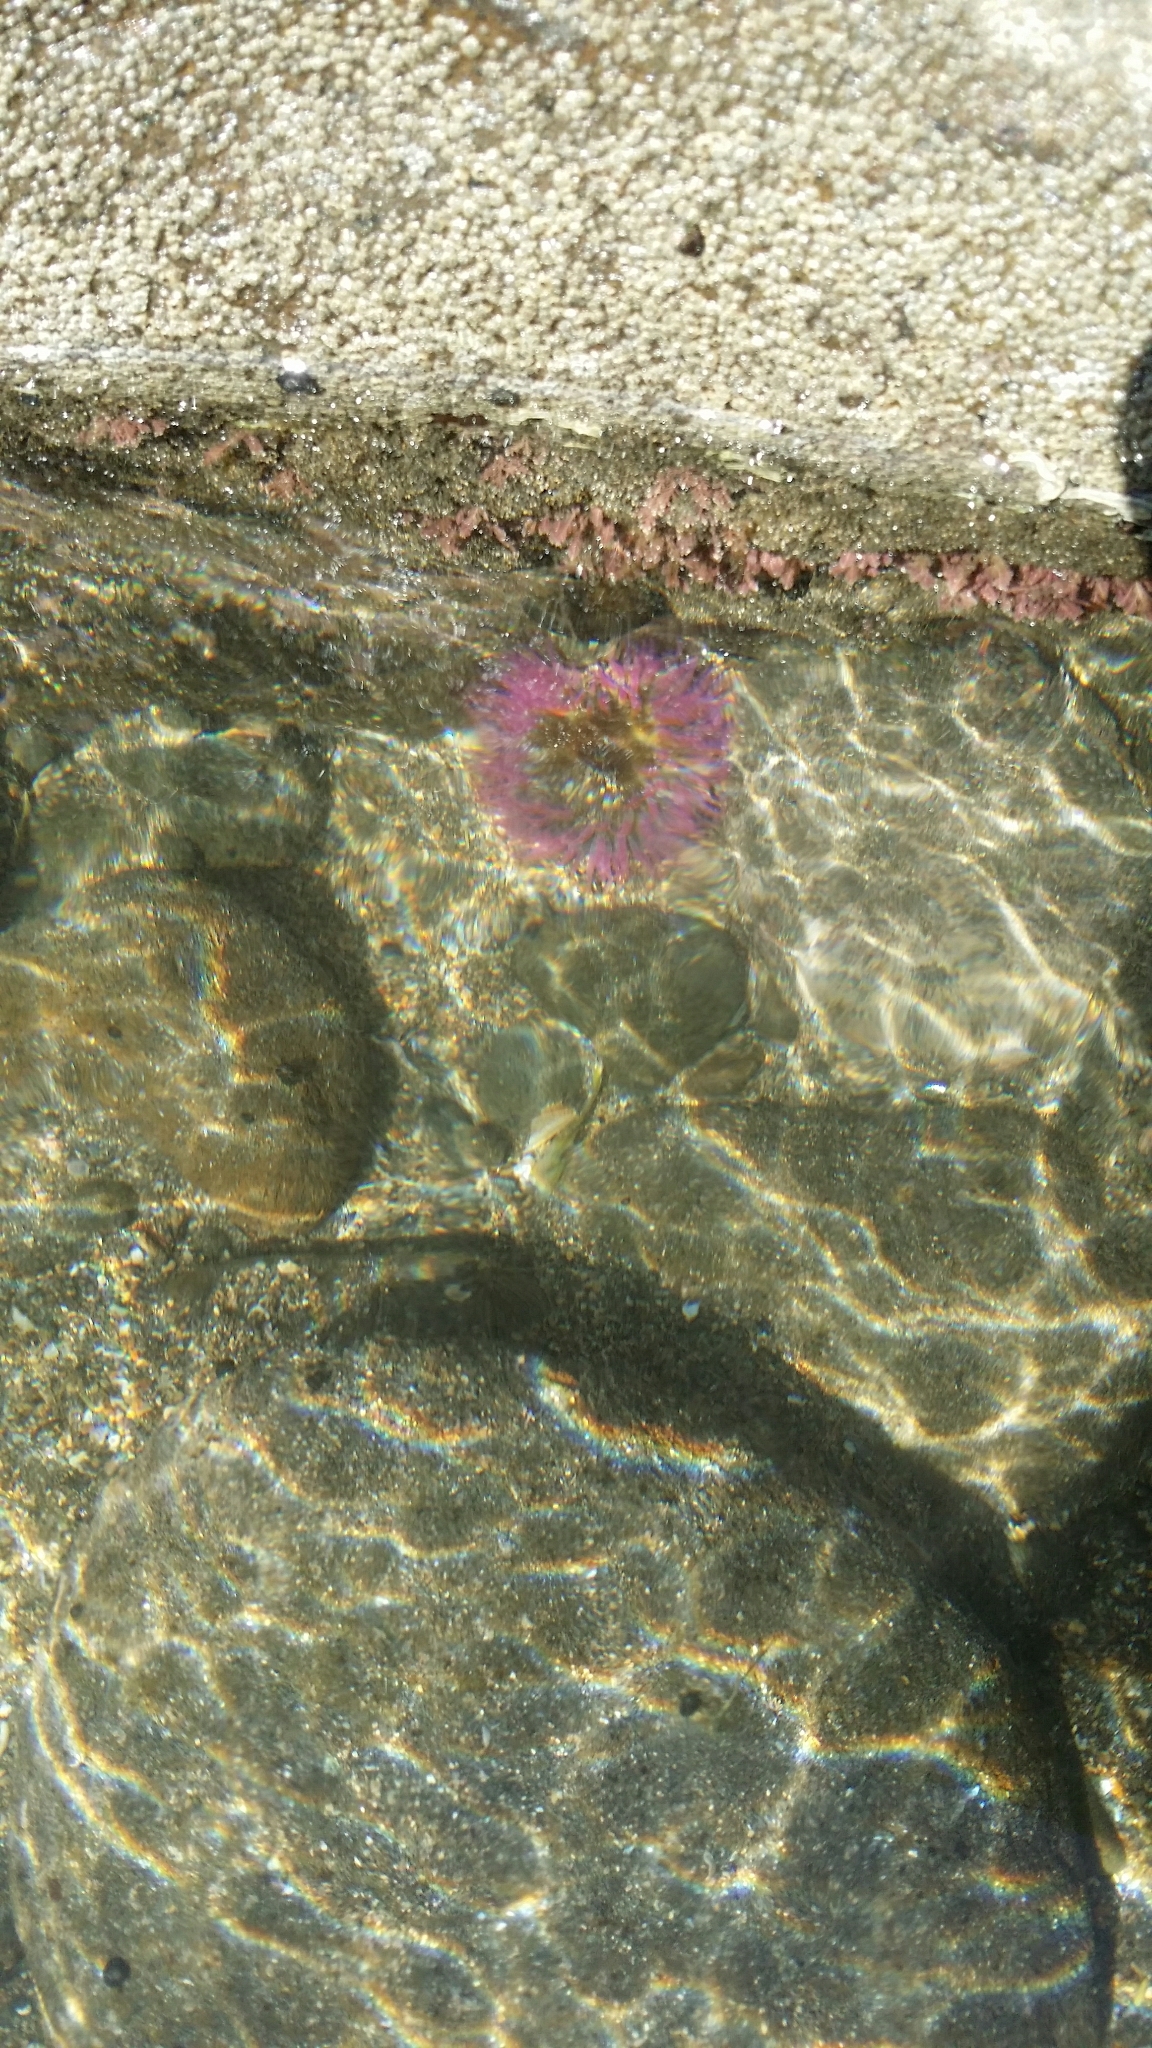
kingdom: Animalia
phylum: Cnidaria
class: Anthozoa
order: Actiniaria
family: Actiniidae
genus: Oulactis
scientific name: Oulactis magna
